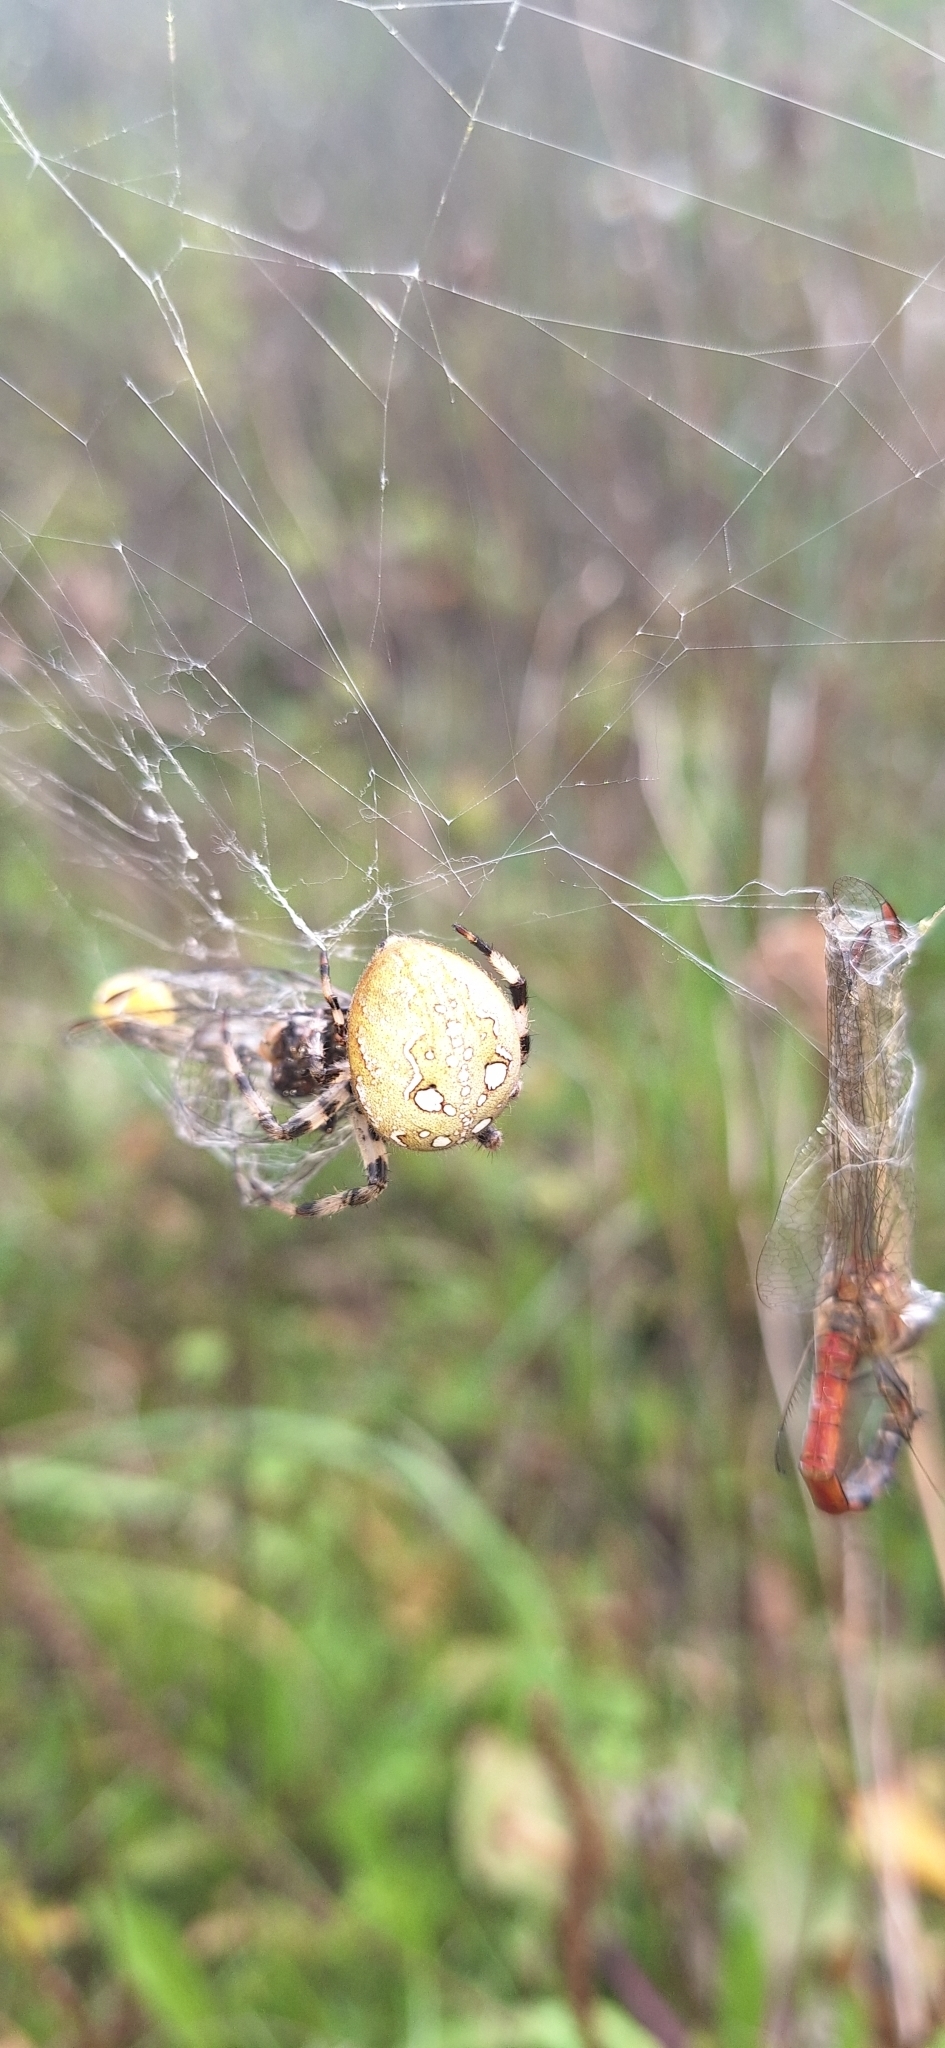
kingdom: Animalia
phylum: Arthropoda
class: Arachnida
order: Araneae
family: Araneidae
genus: Araneus
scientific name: Araneus quadratus
